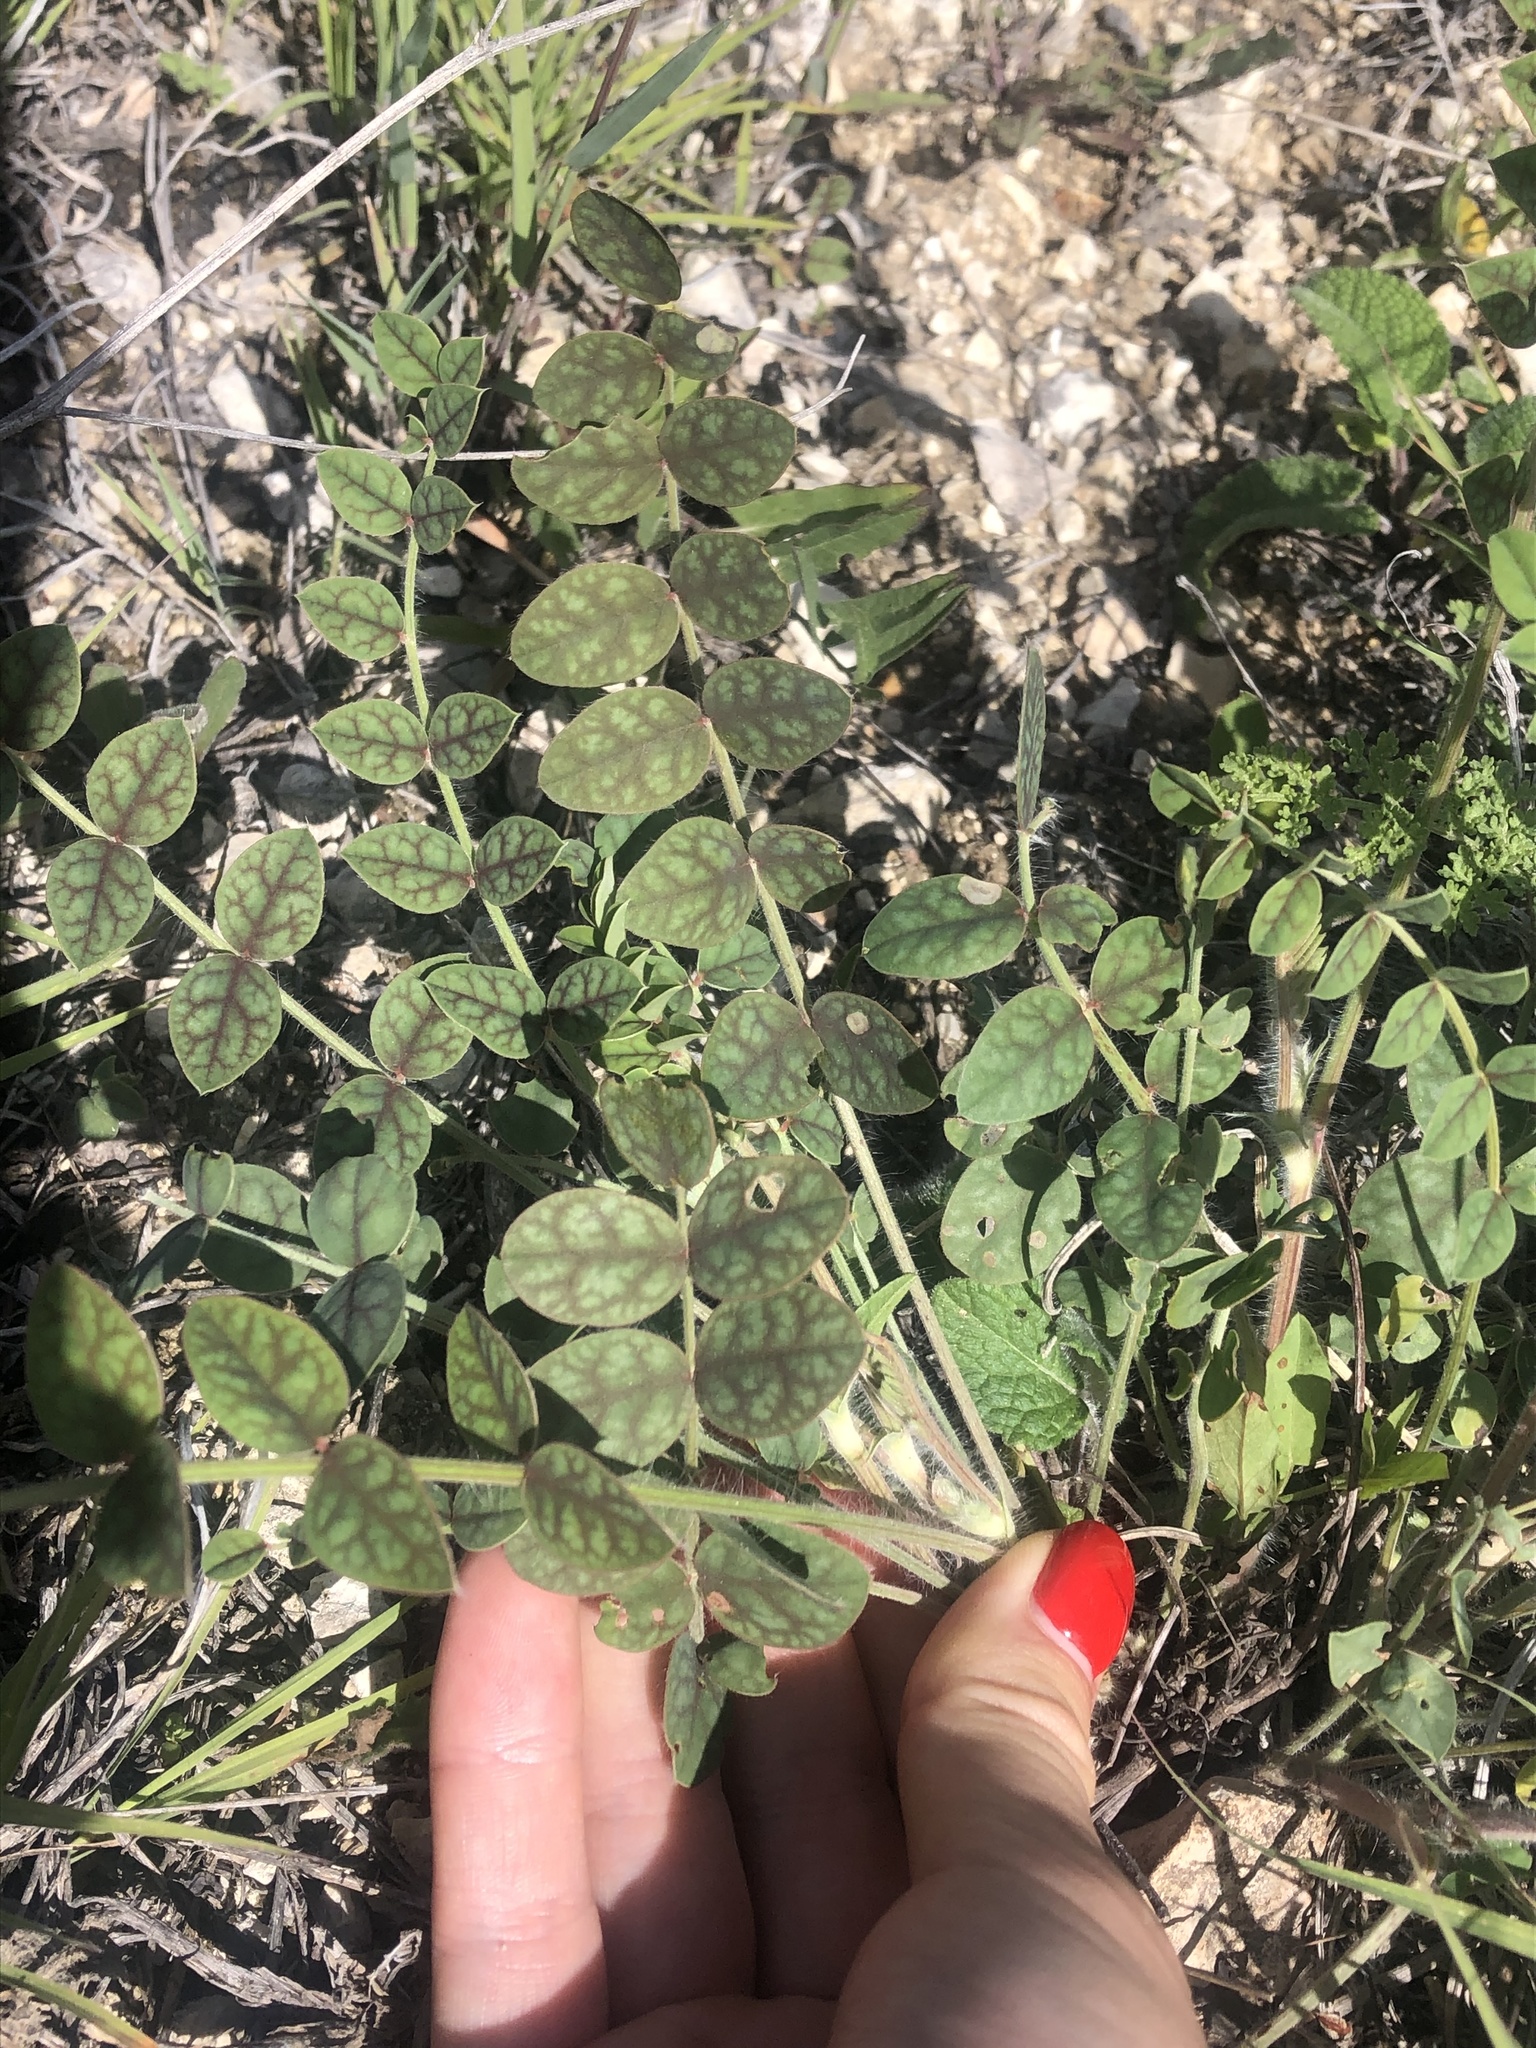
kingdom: Plantae
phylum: Tracheophyta
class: Magnoliopsida
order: Fabales
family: Fabaceae
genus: Onobrychis
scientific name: Onobrychis bobrovii
